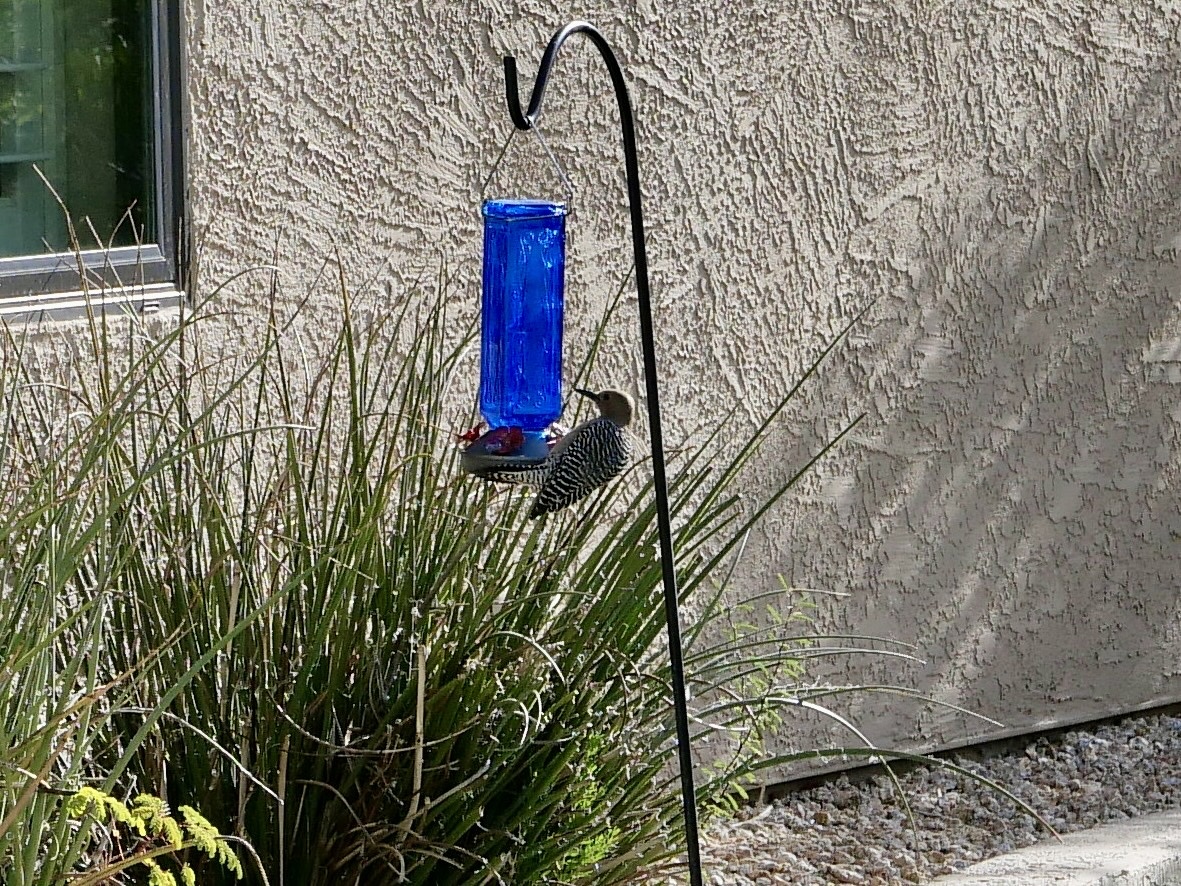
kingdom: Animalia
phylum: Chordata
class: Aves
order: Piciformes
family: Picidae
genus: Melanerpes
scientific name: Melanerpes uropygialis
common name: Gila woodpecker
